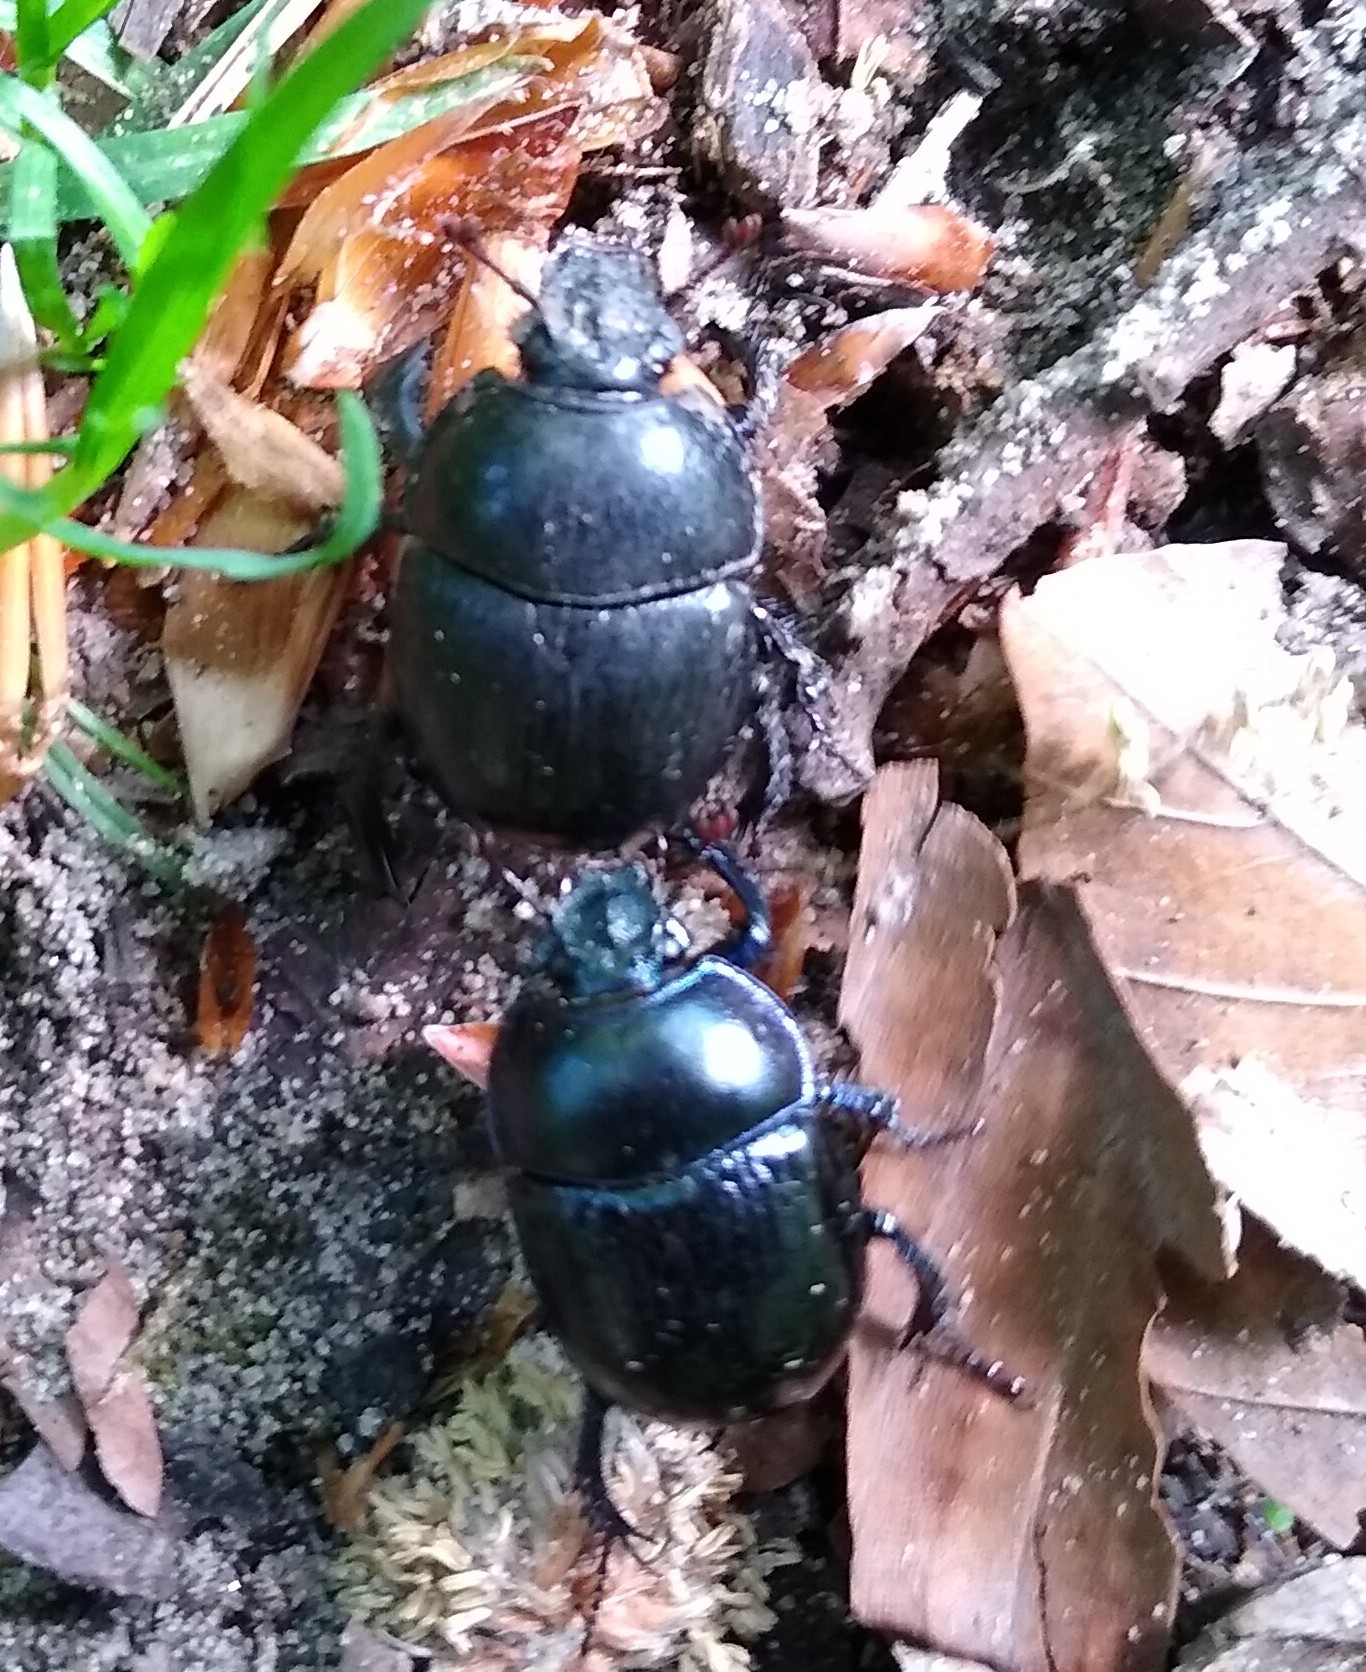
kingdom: Animalia
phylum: Arthropoda
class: Insecta
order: Coleoptera
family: Geotrupidae
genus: Anoplotrupes
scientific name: Anoplotrupes stercorosus
